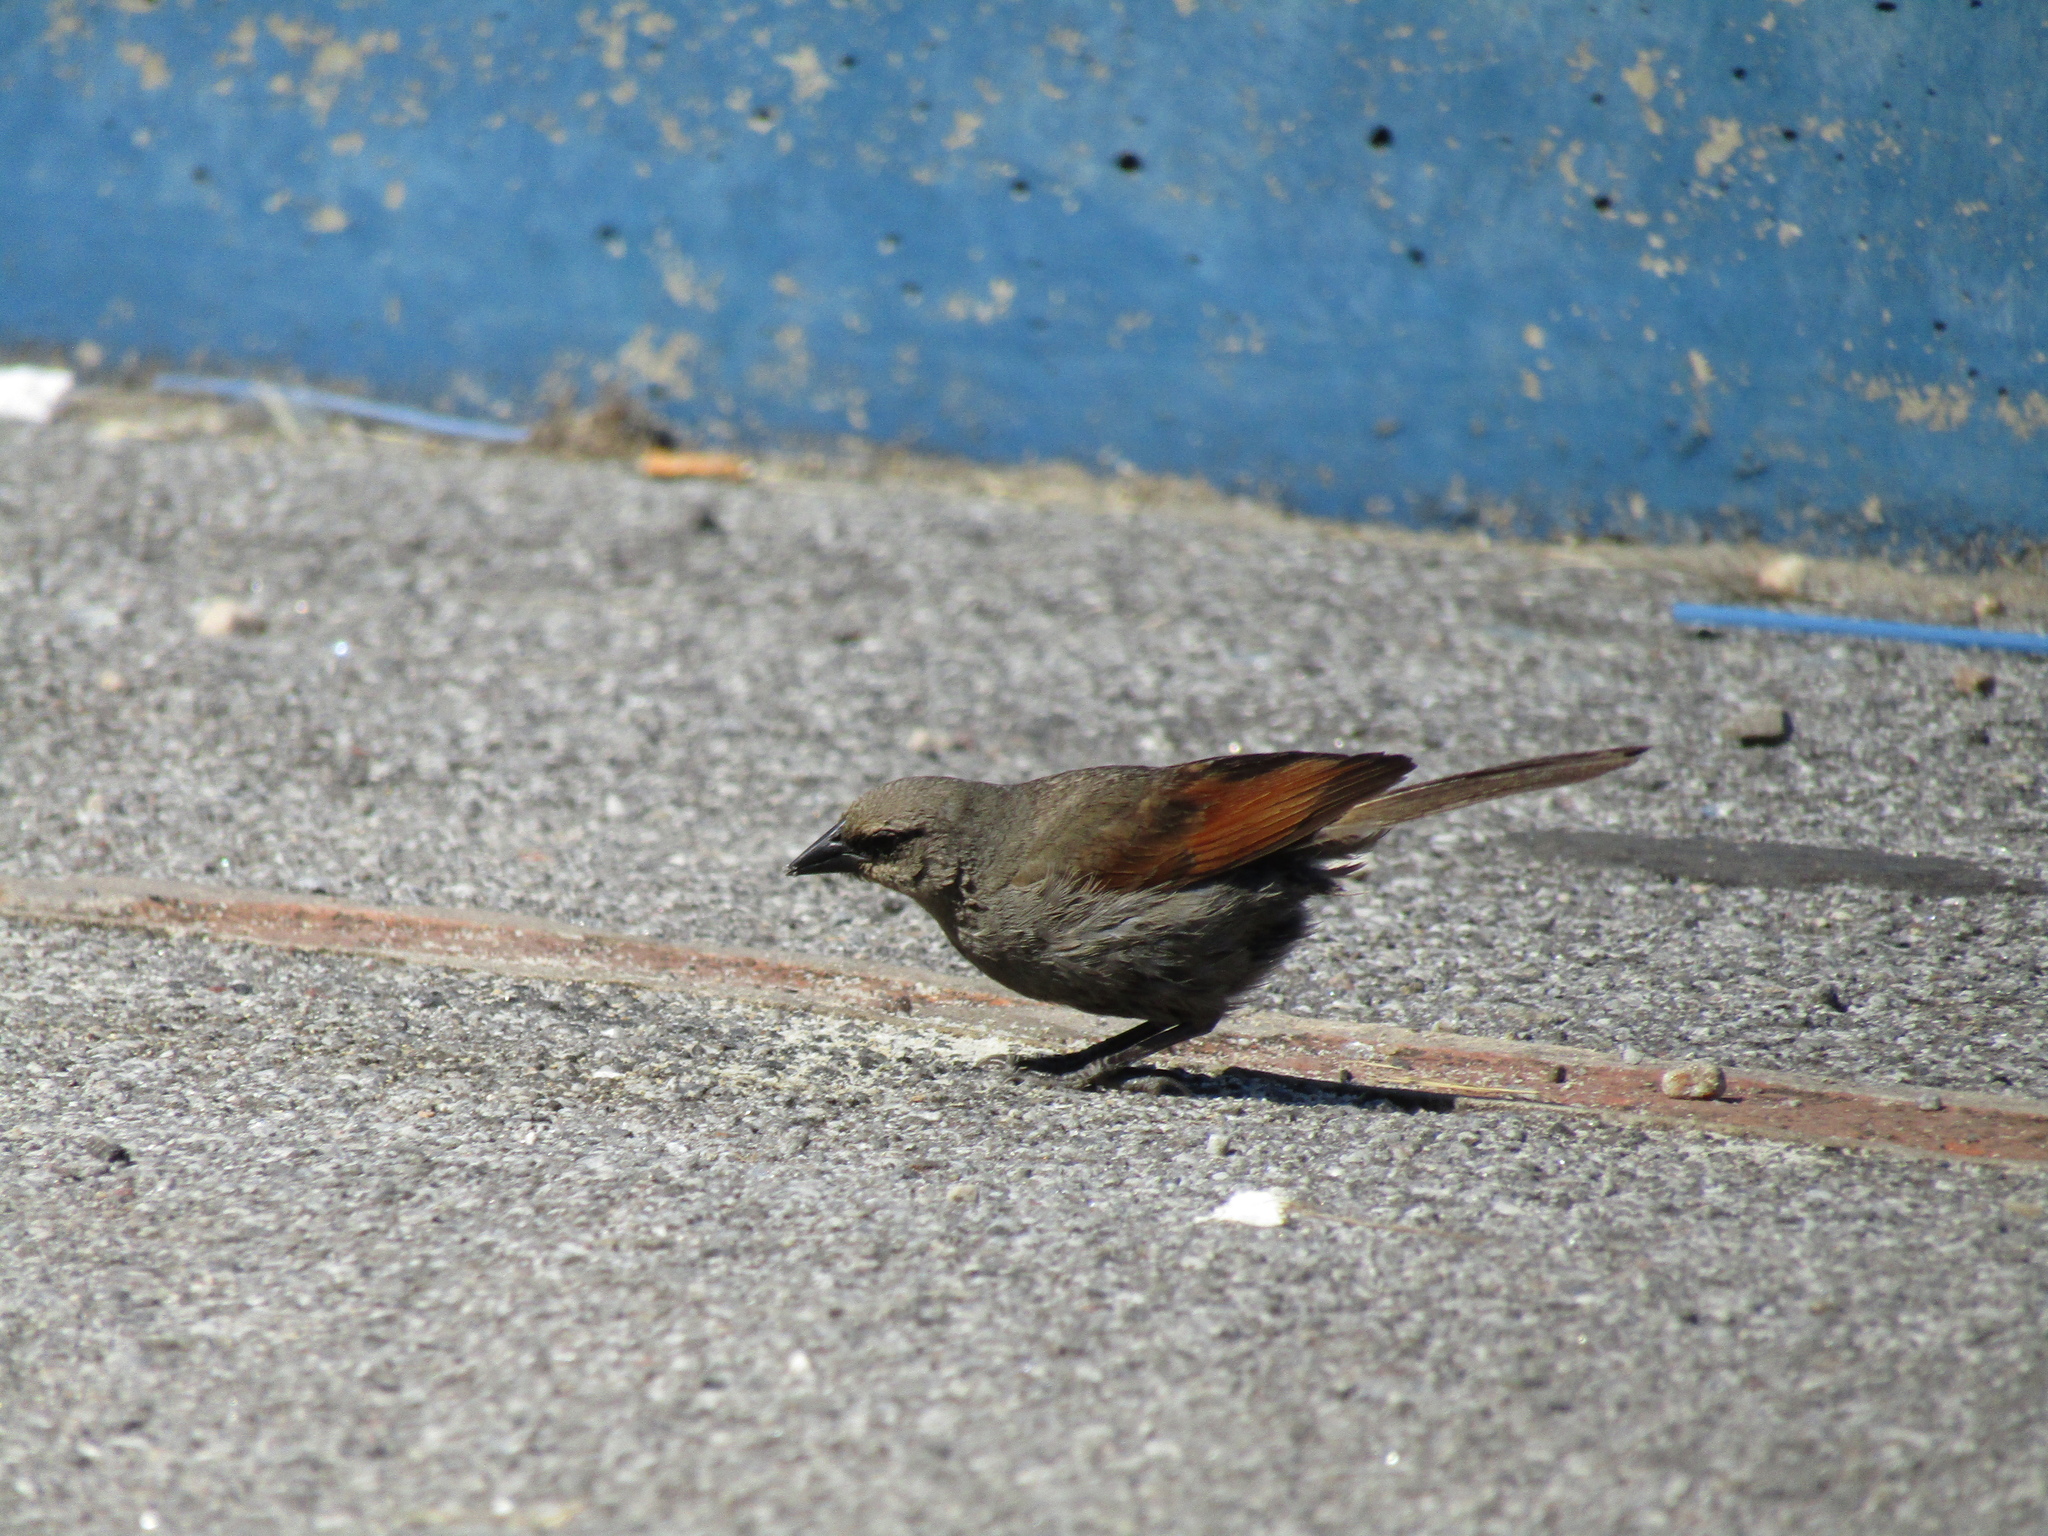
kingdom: Animalia
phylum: Chordata
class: Aves
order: Passeriformes
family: Icteridae
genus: Agelaioides
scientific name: Agelaioides badius
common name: Baywing
